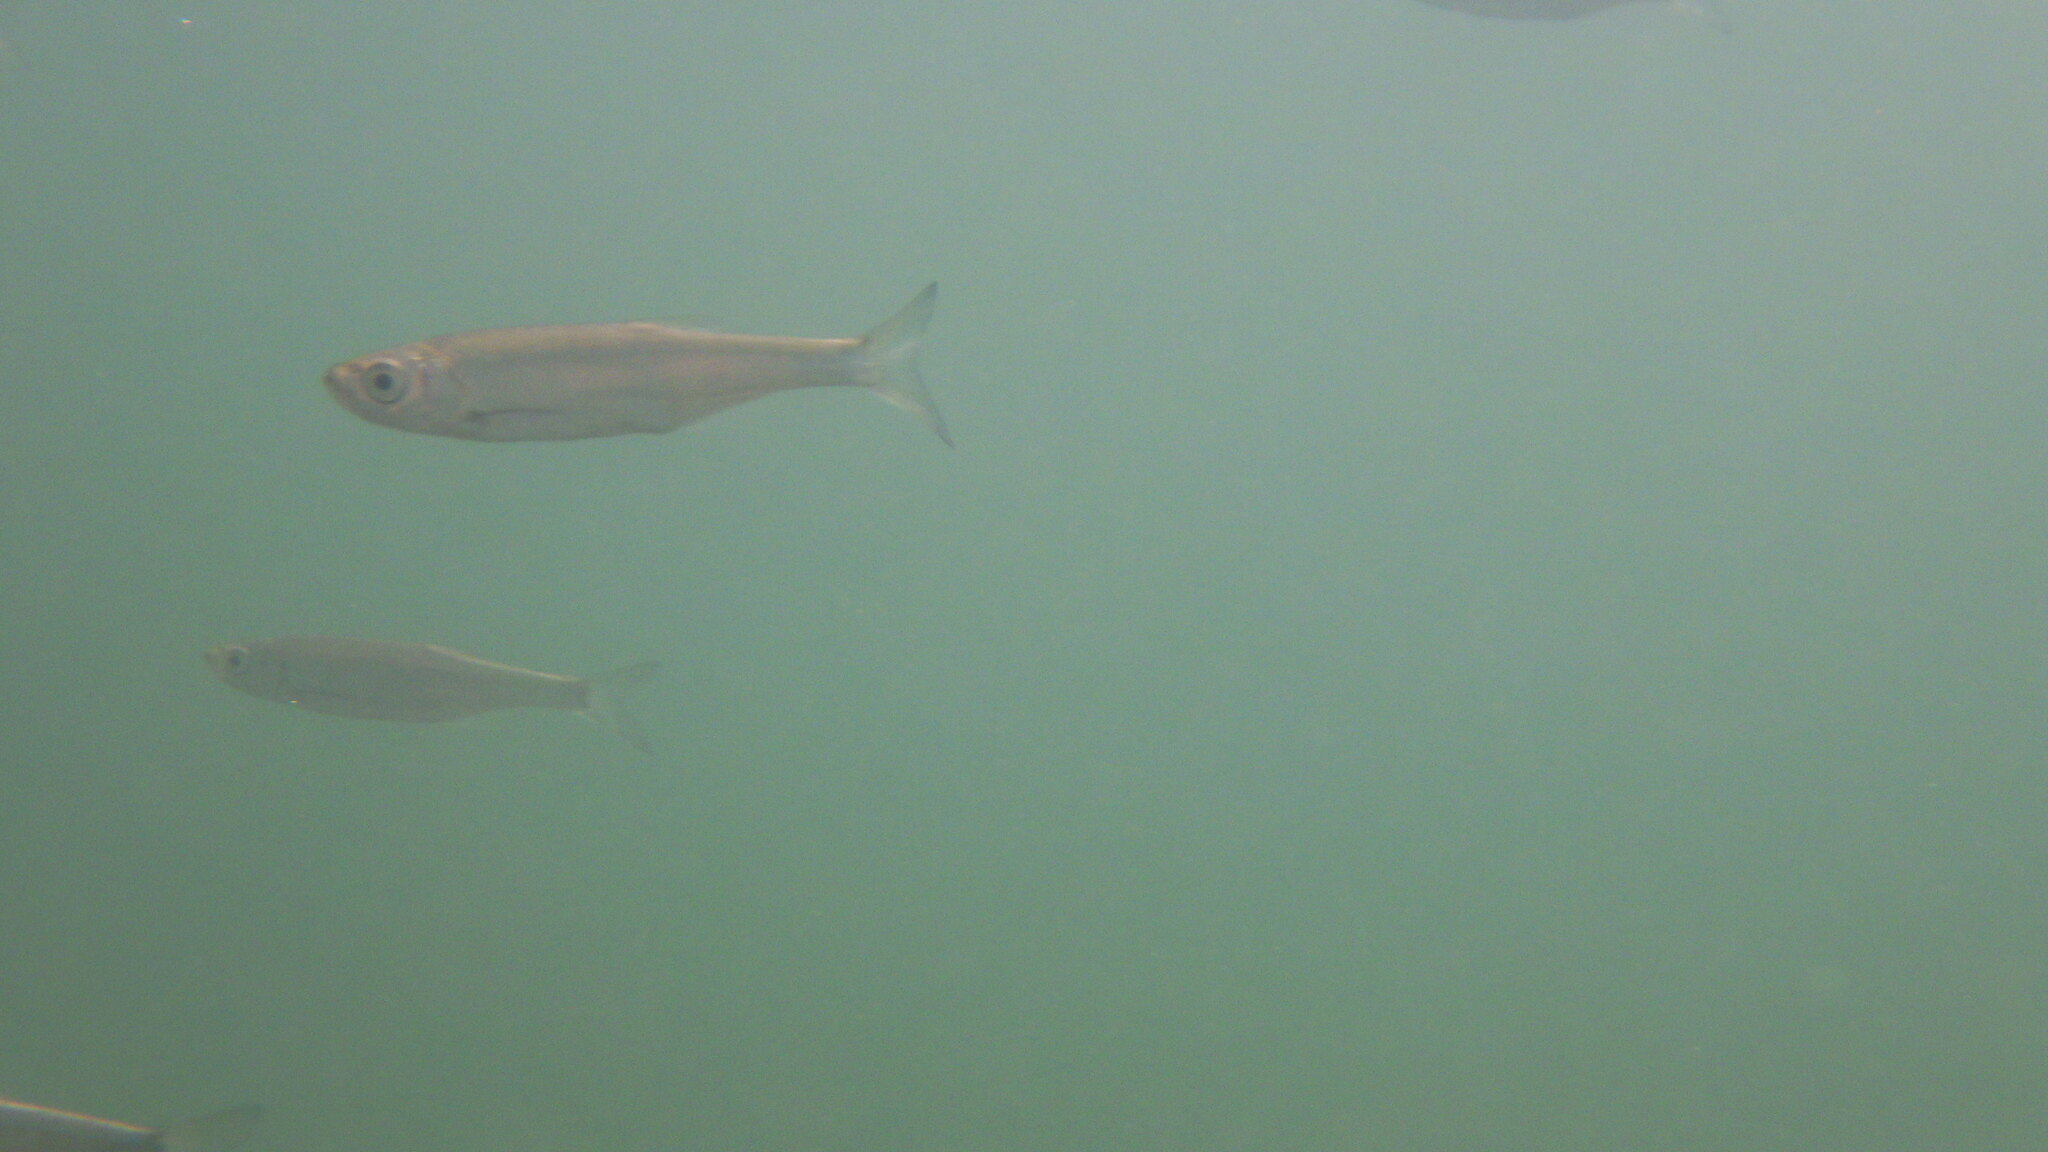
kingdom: Animalia
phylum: Chordata
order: Cypriniformes
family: Cyprinidae
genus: Alburnus
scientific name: Alburnus alburnus
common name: Bleak
